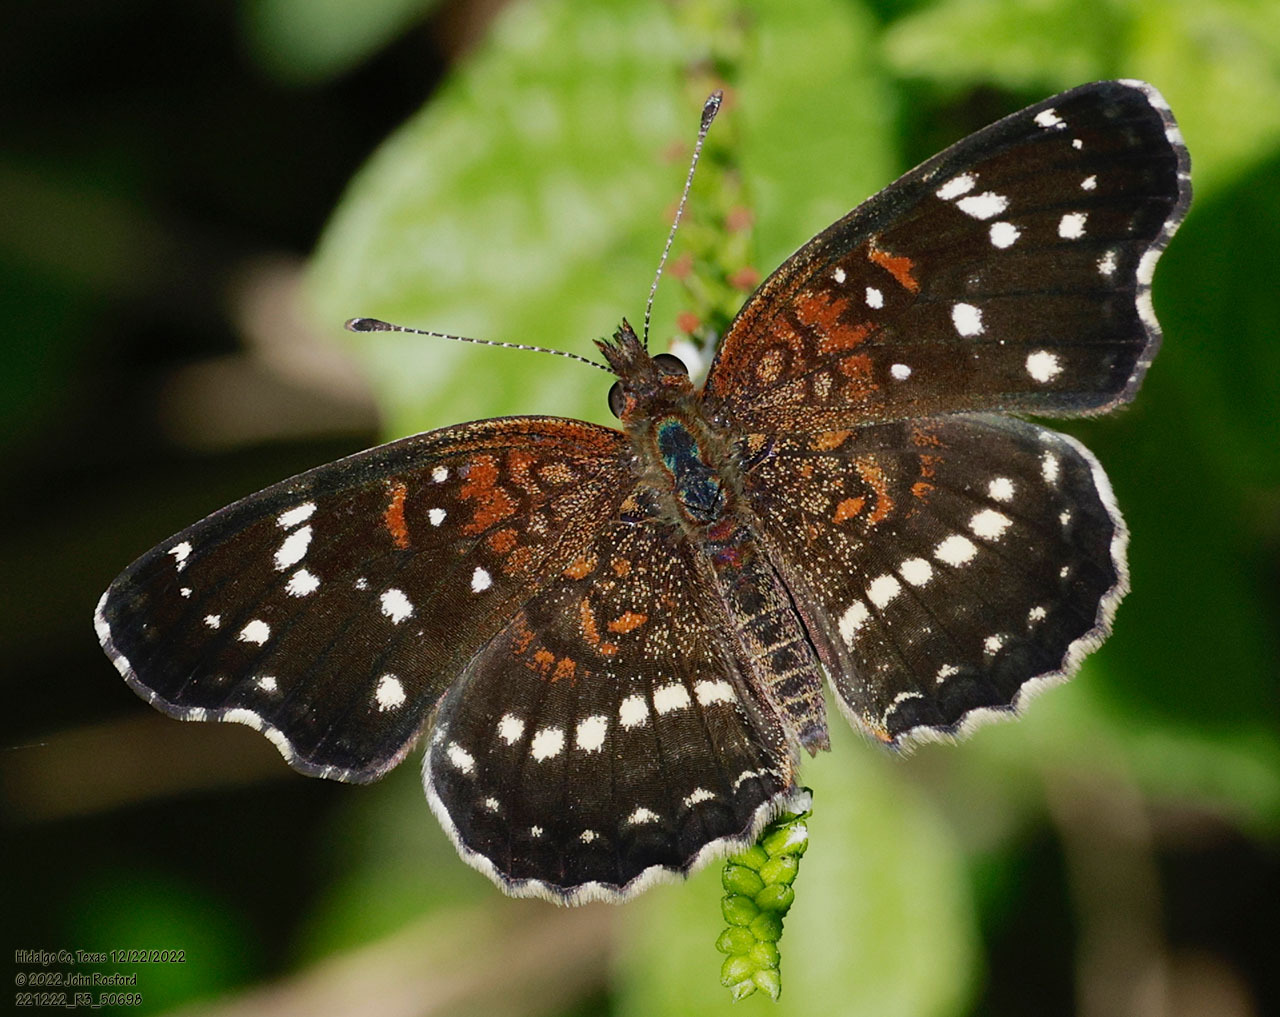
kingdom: Animalia
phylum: Arthropoda
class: Insecta
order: Lepidoptera
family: Nymphalidae
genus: Anthanassa
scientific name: Anthanassa texana
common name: Texan crescent
